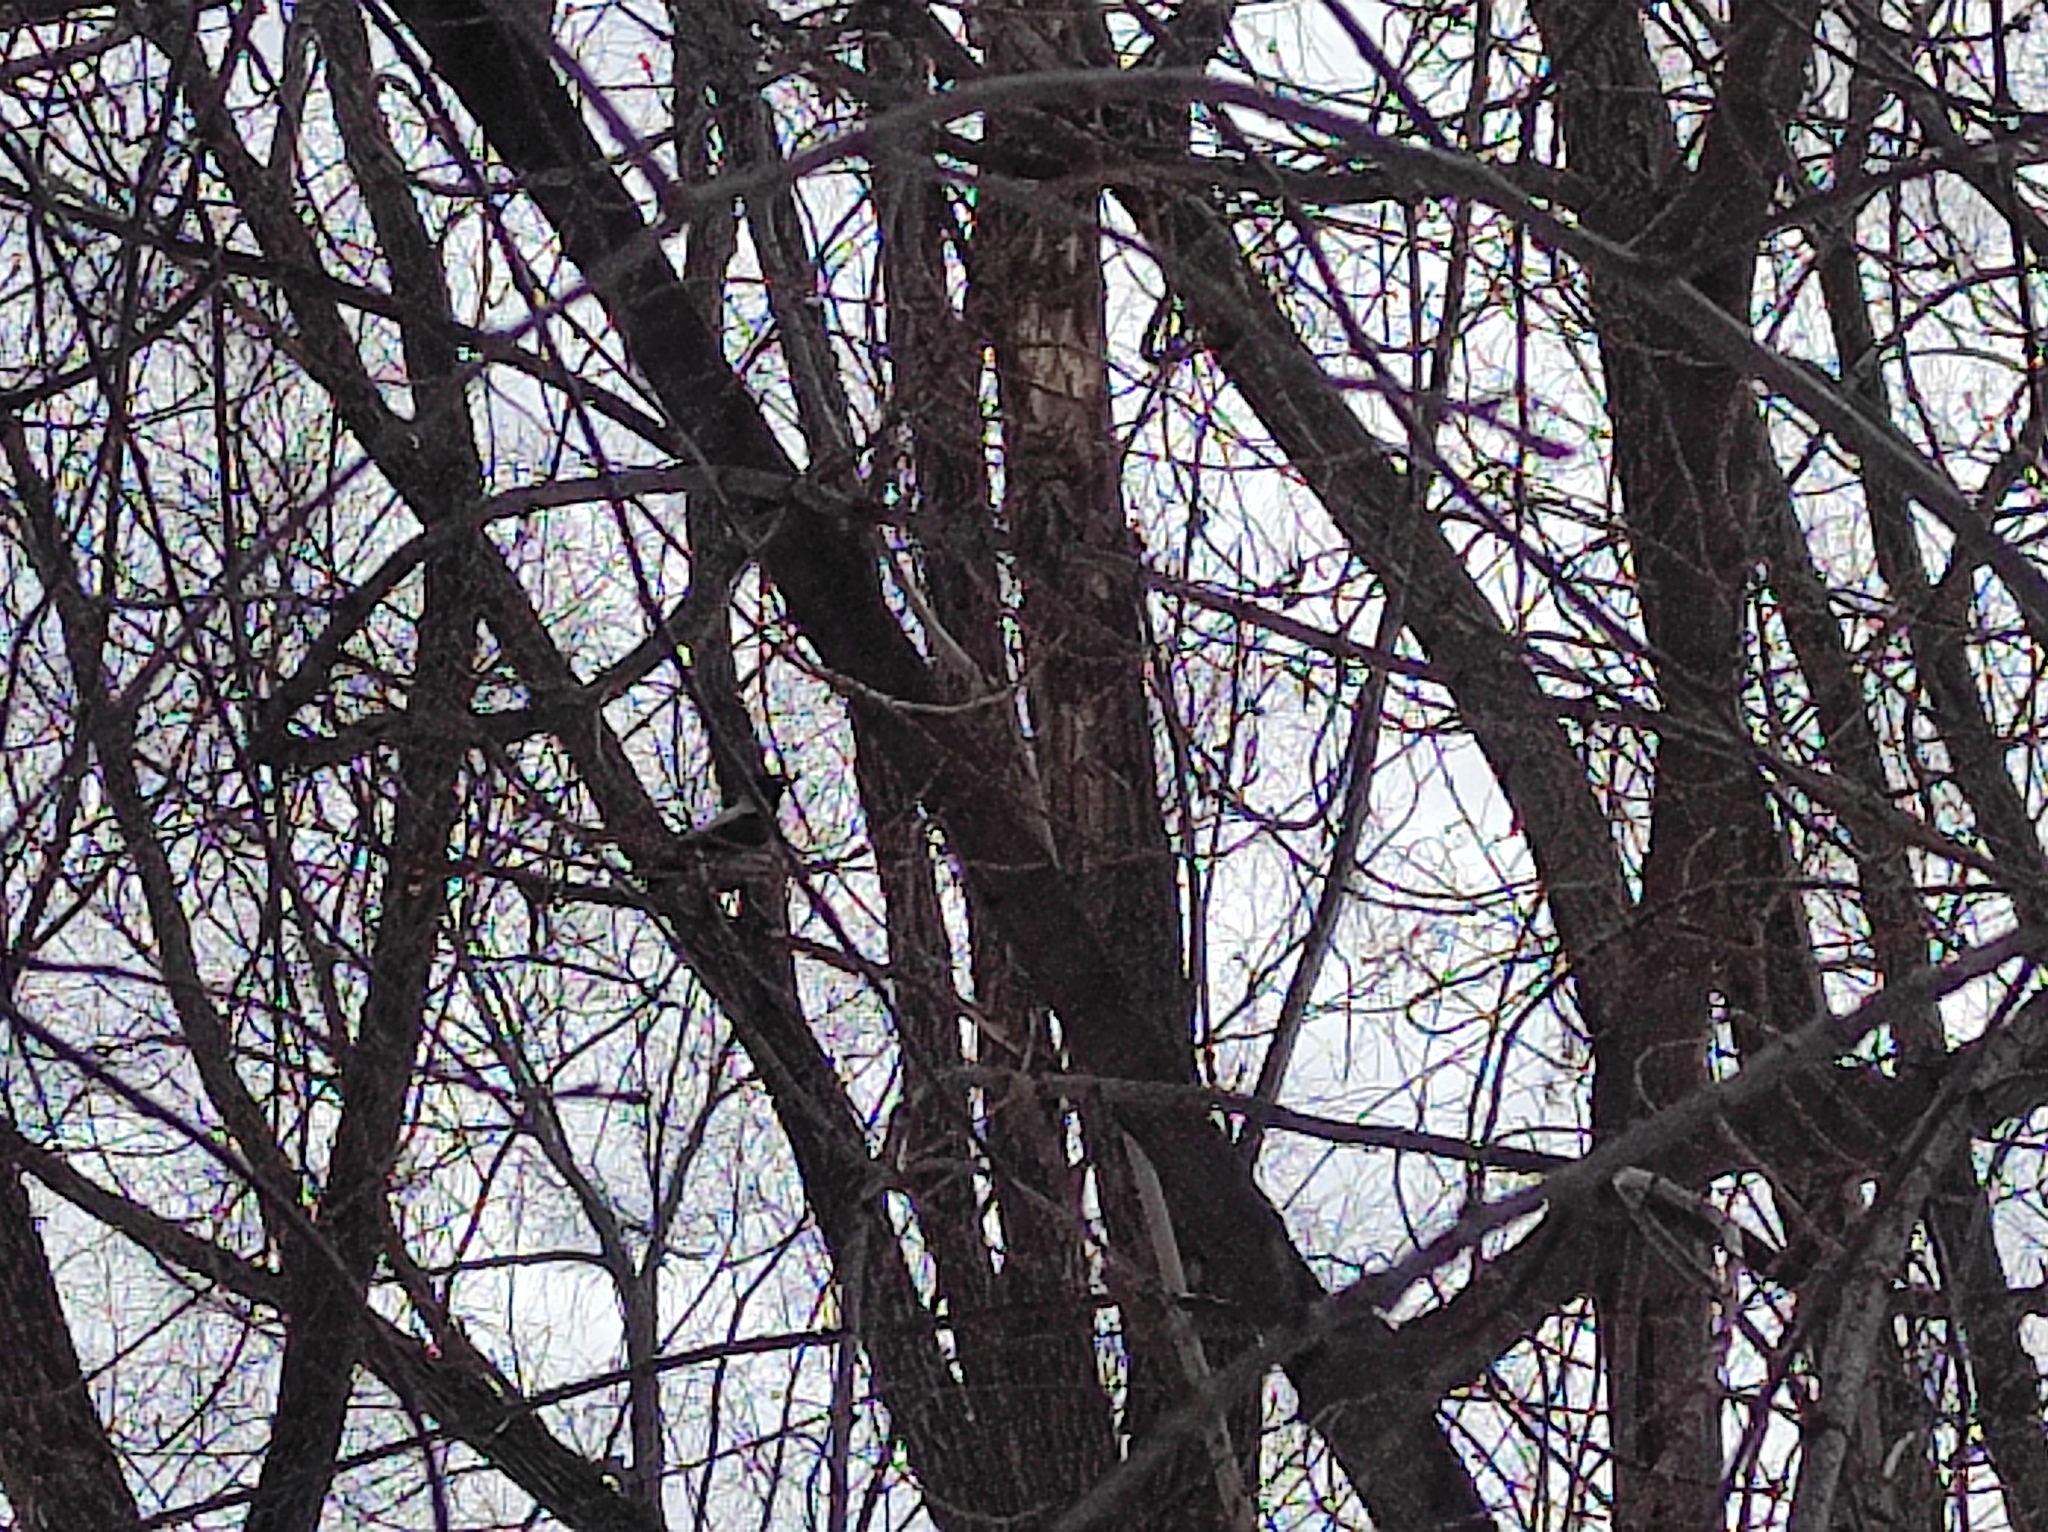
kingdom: Animalia
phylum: Chordata
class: Aves
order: Passeriformes
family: Corvidae
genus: Corvus
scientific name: Corvus cornix
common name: Hooded crow
